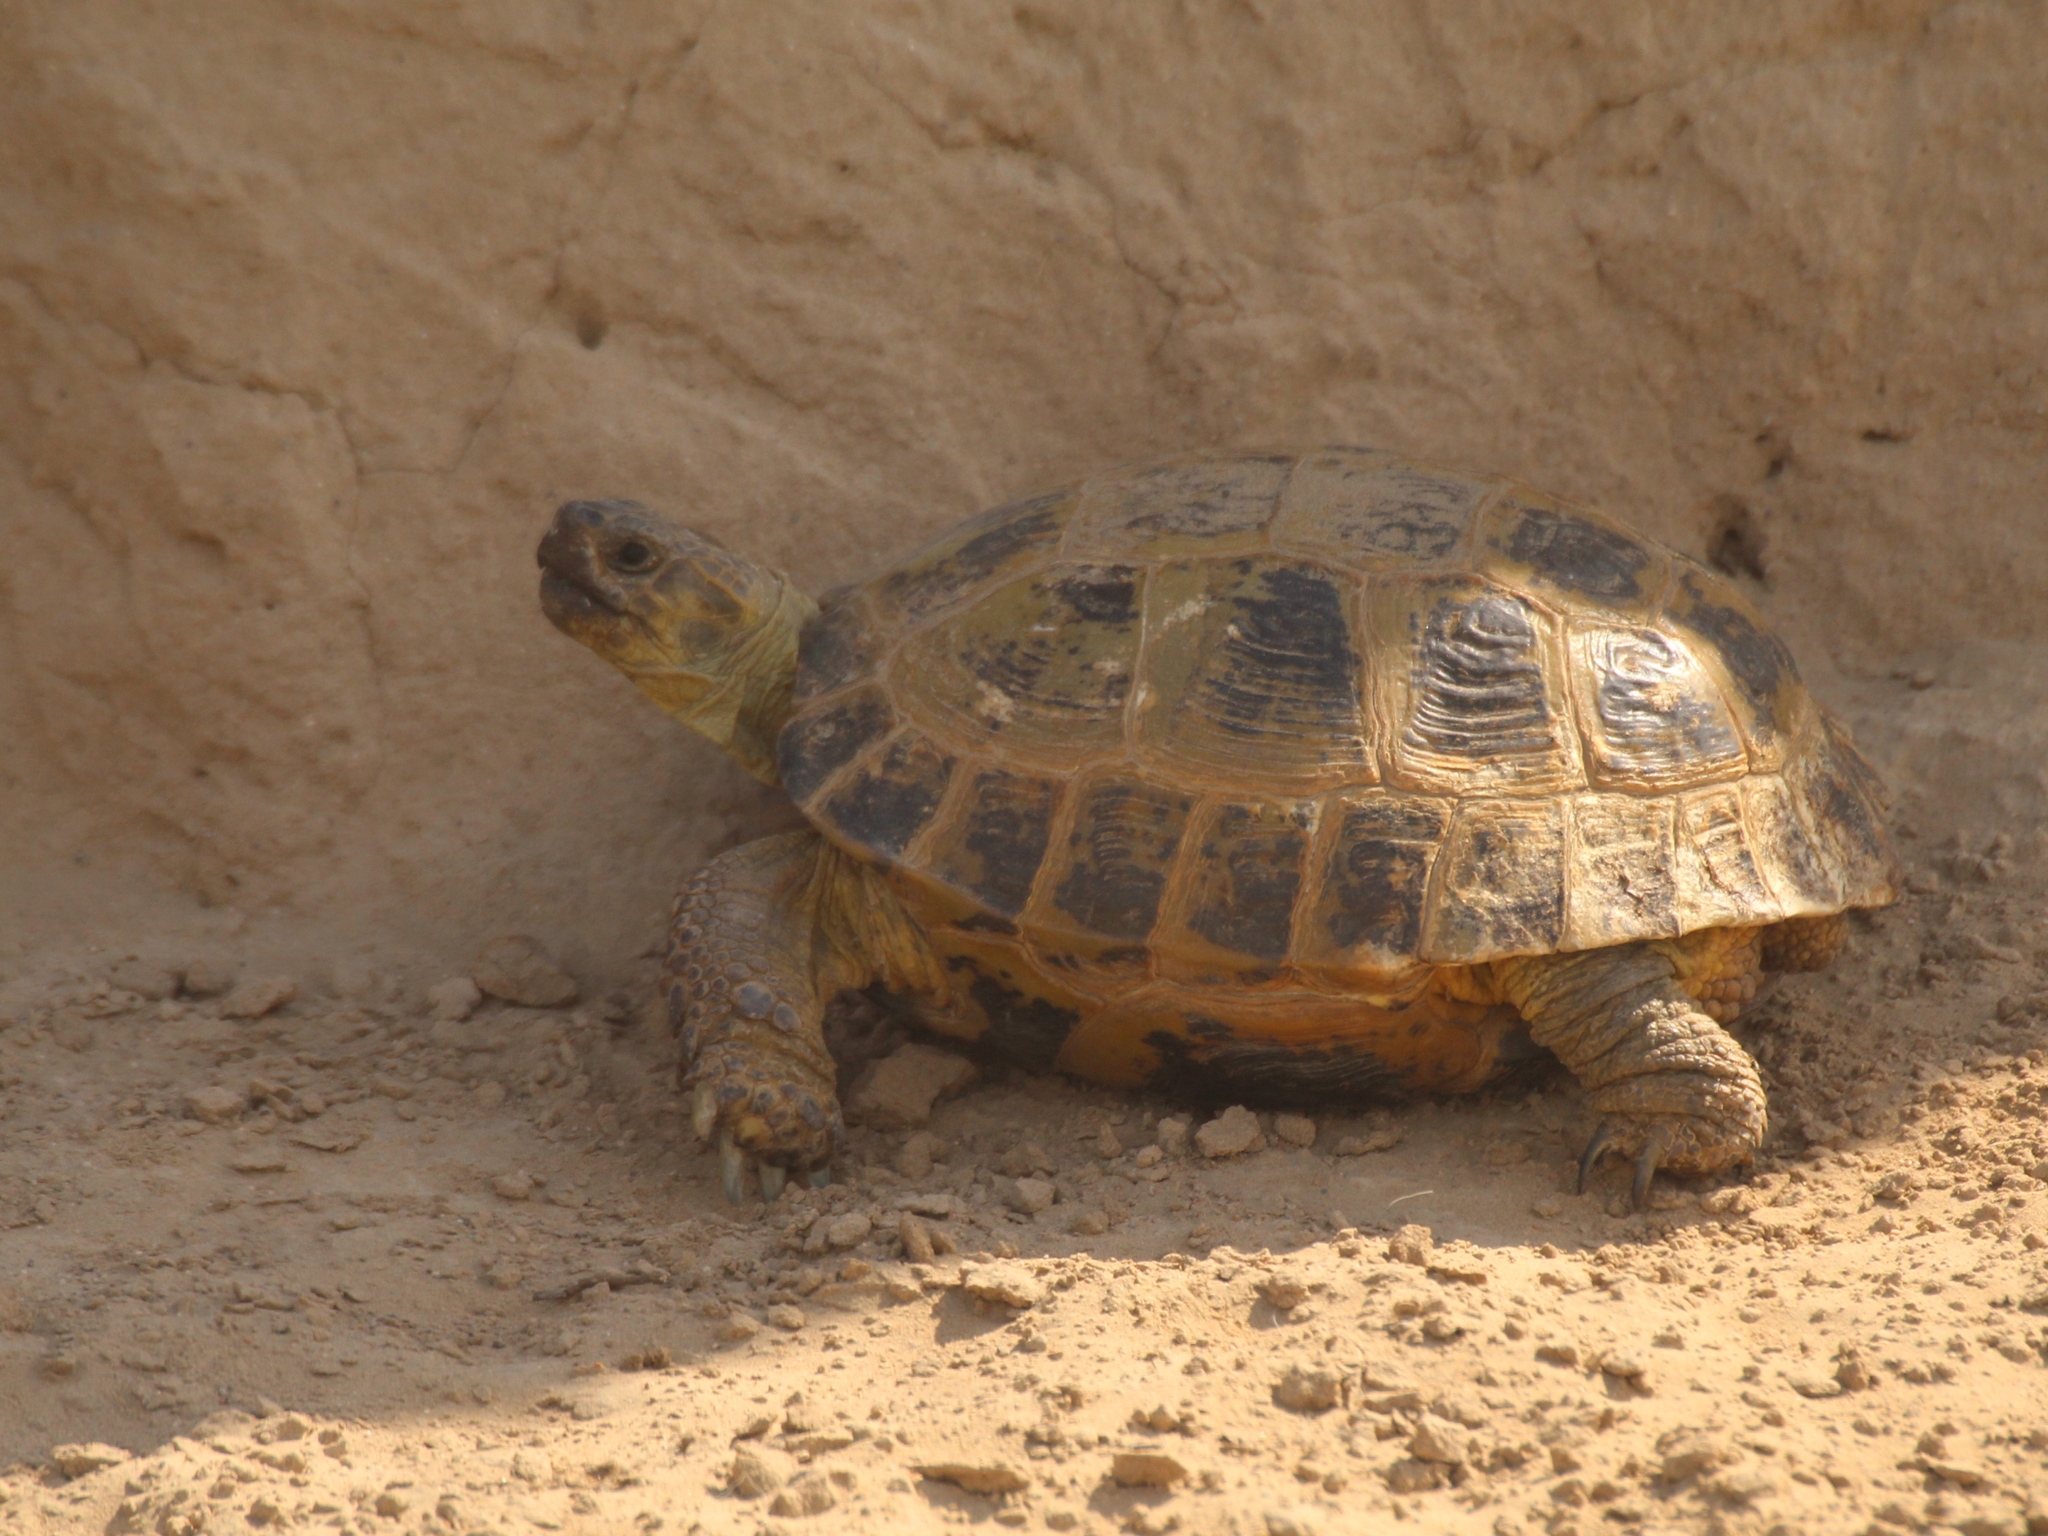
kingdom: Animalia
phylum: Chordata
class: Testudines
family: Testudinidae
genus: Testudo
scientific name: Testudo horsfieldii
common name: Central asia tortoise
